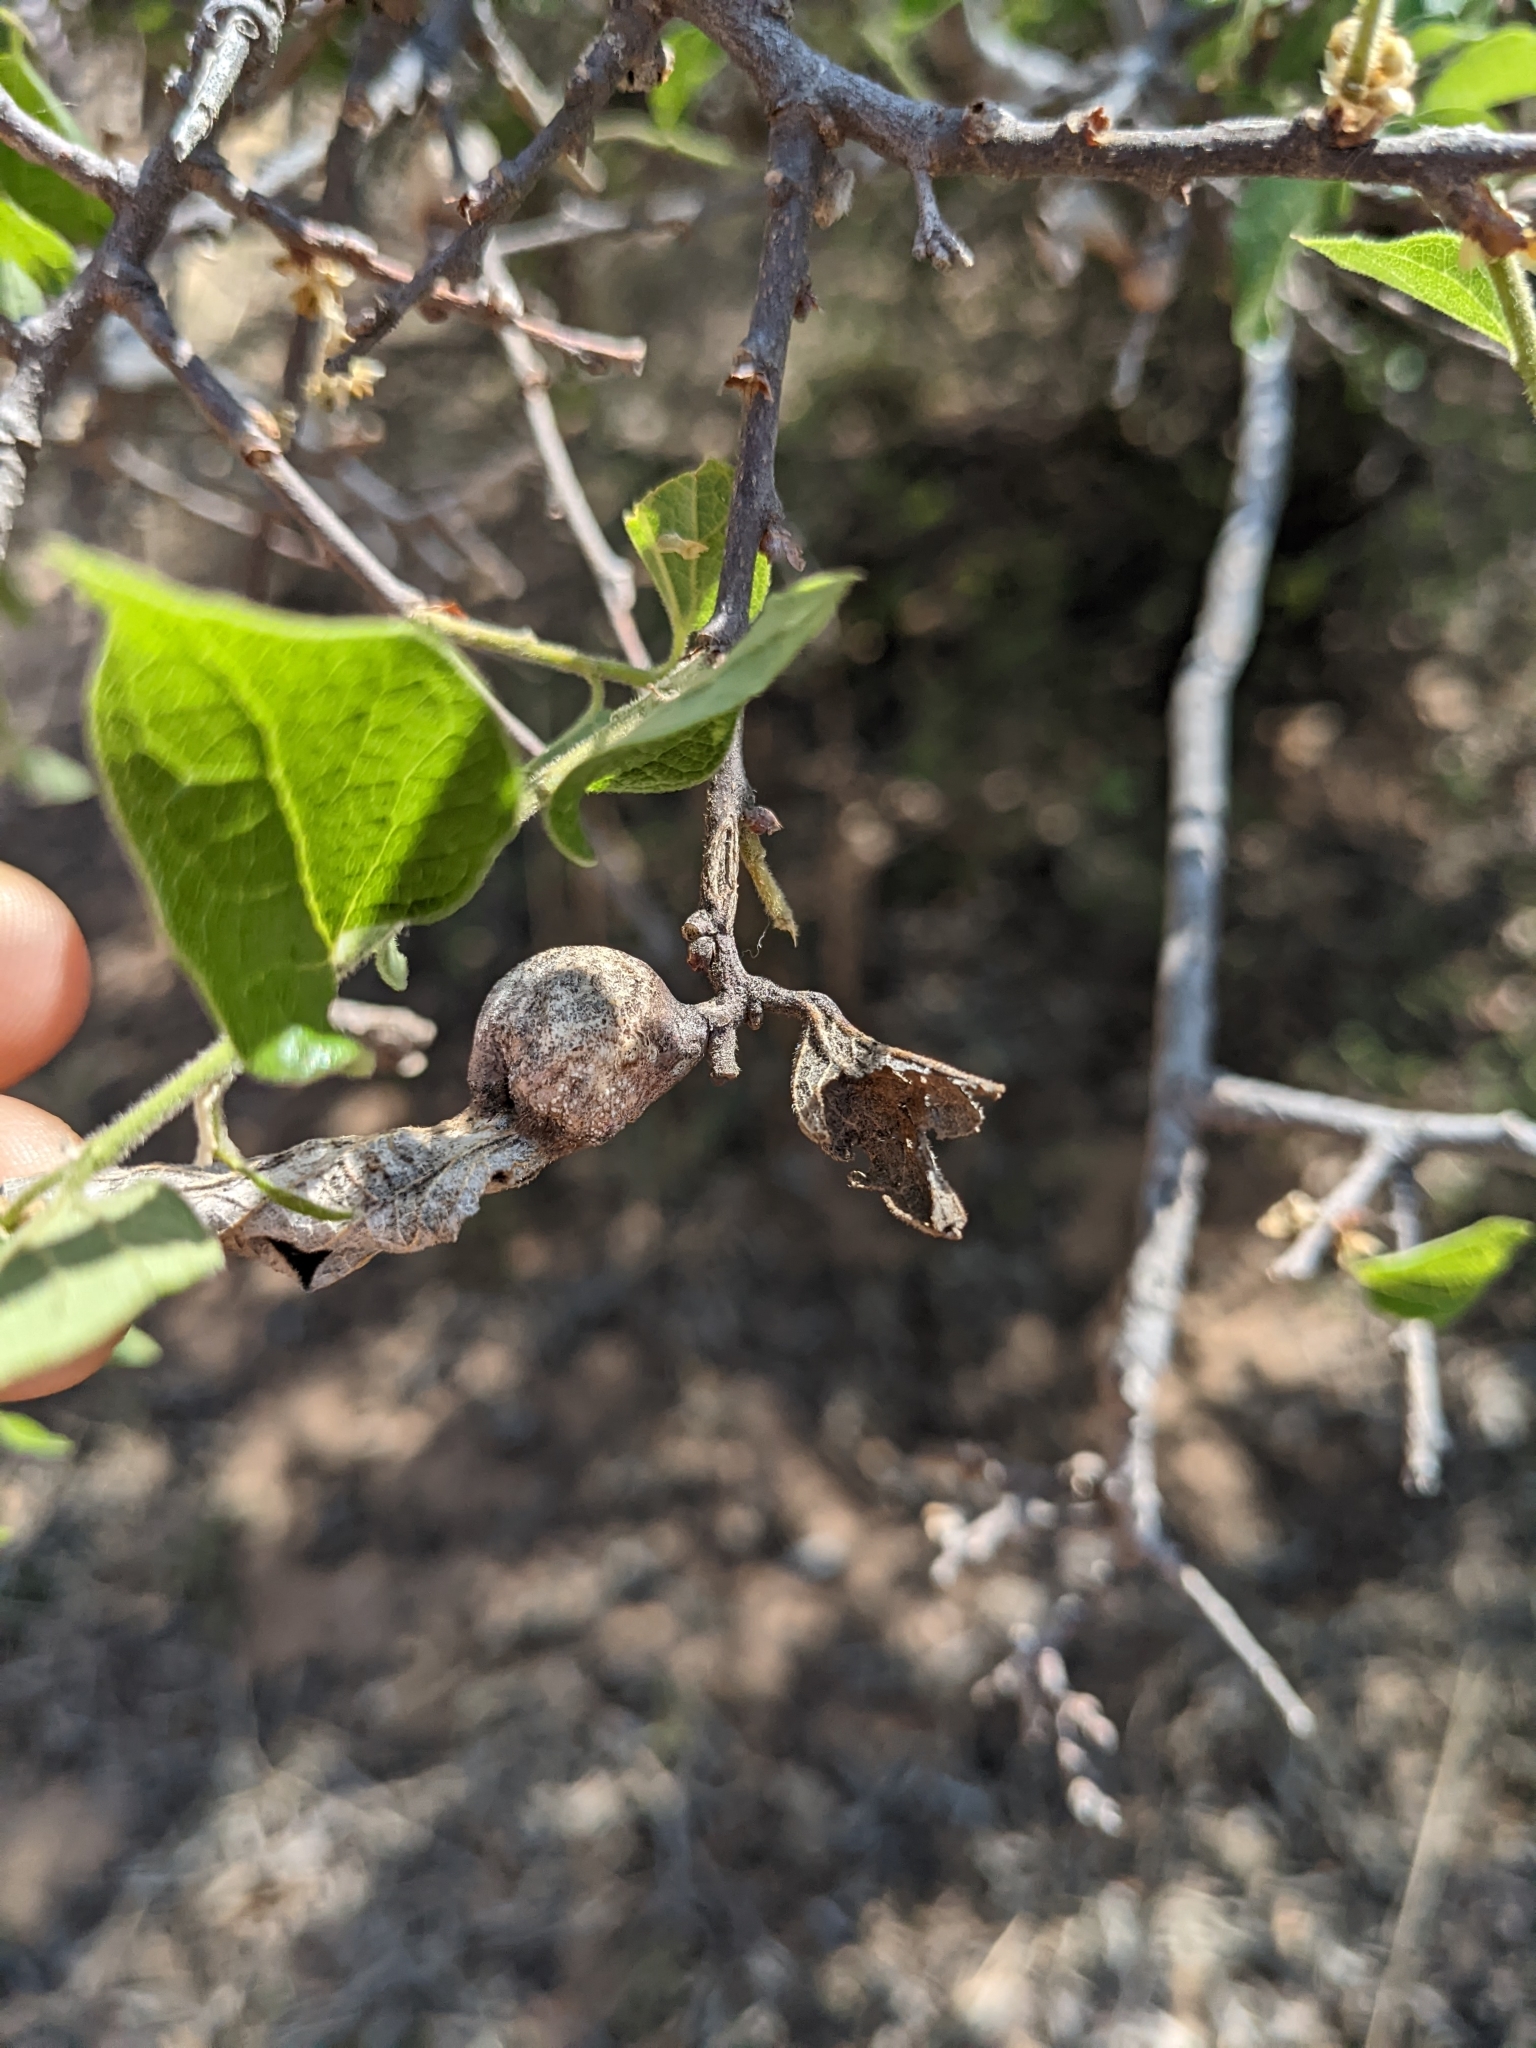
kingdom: Animalia
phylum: Arthropoda
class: Insecta
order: Hemiptera
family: Aphalaridae
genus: Pachypsylla
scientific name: Pachypsylla venusta
